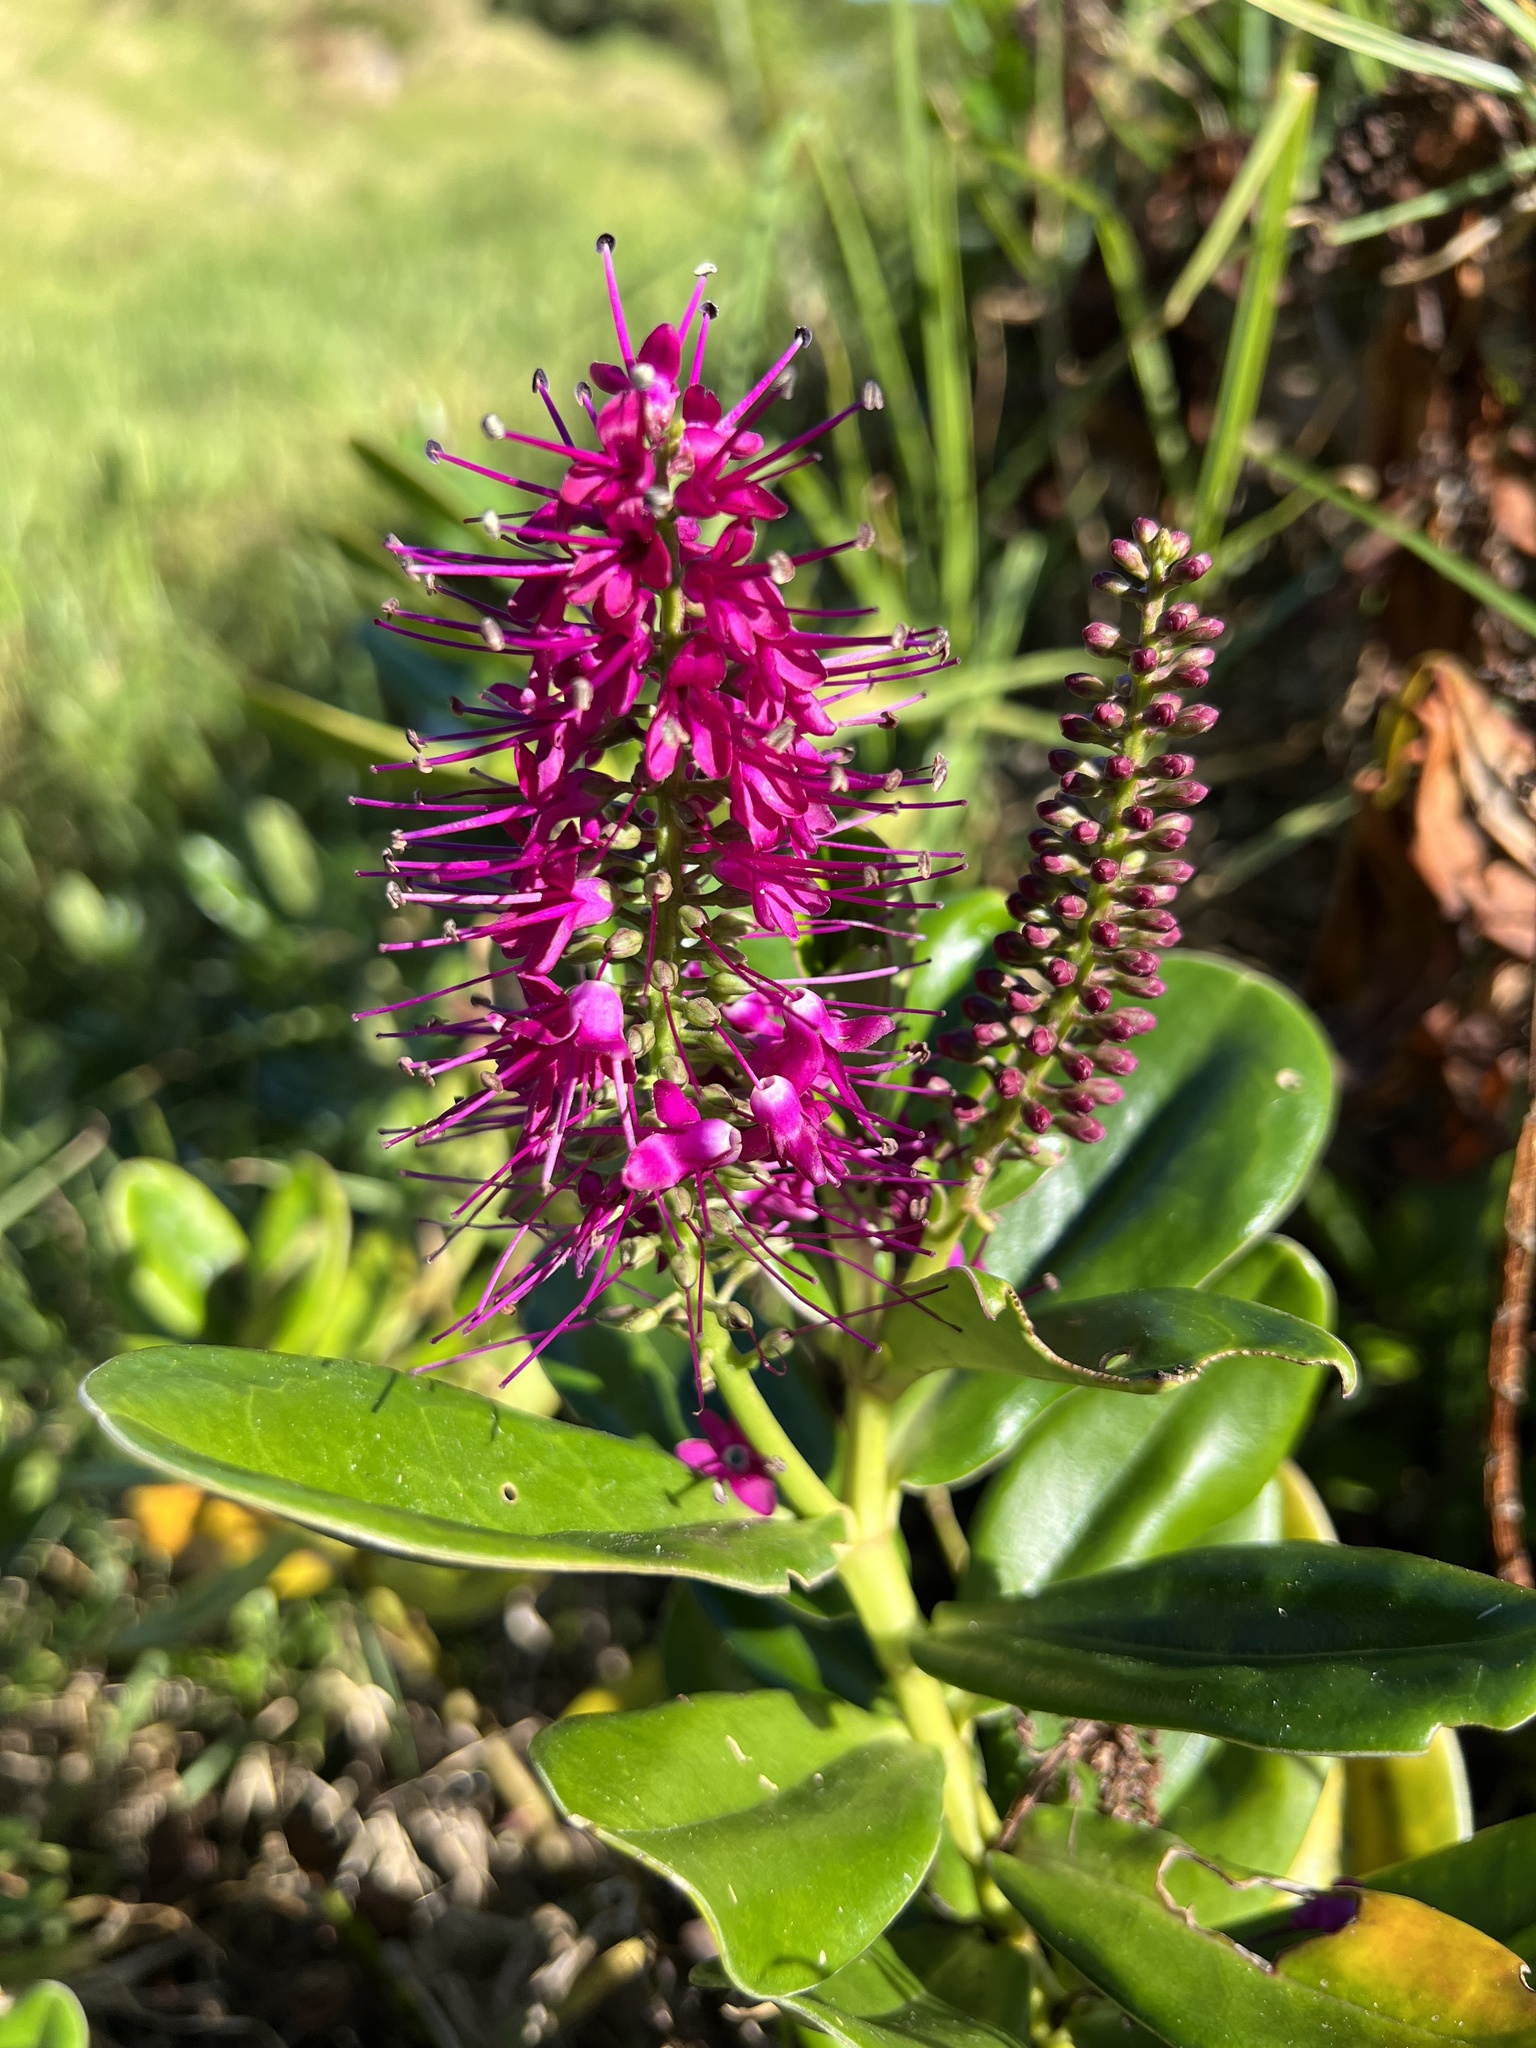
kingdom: Plantae
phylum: Tracheophyta
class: Magnoliopsida
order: Lamiales
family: Plantaginaceae
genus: Veronica
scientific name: Veronica speciosa
